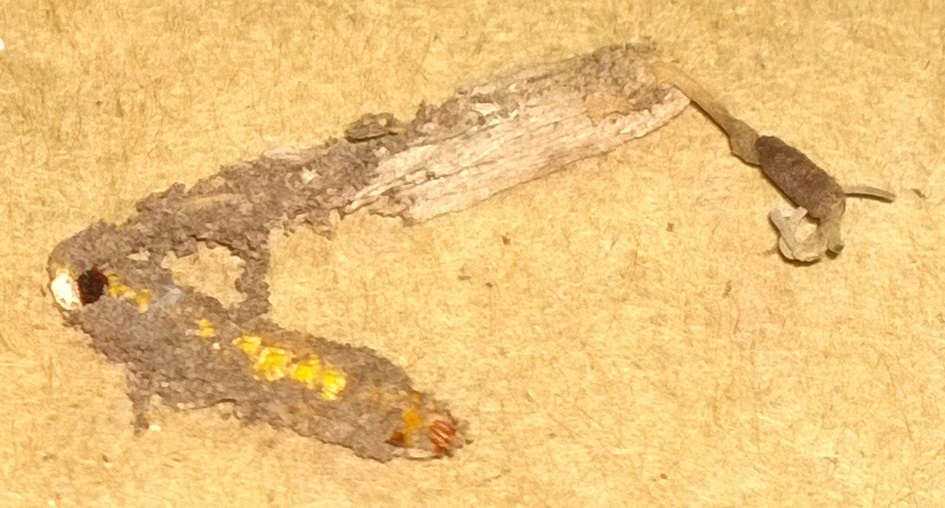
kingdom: Fungi
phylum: Ascomycota
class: Sordariomycetes
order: Hypocreales
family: Ophiocordycipitaceae
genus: Ophiocordyceps
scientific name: Ophiocordyceps stylophora
